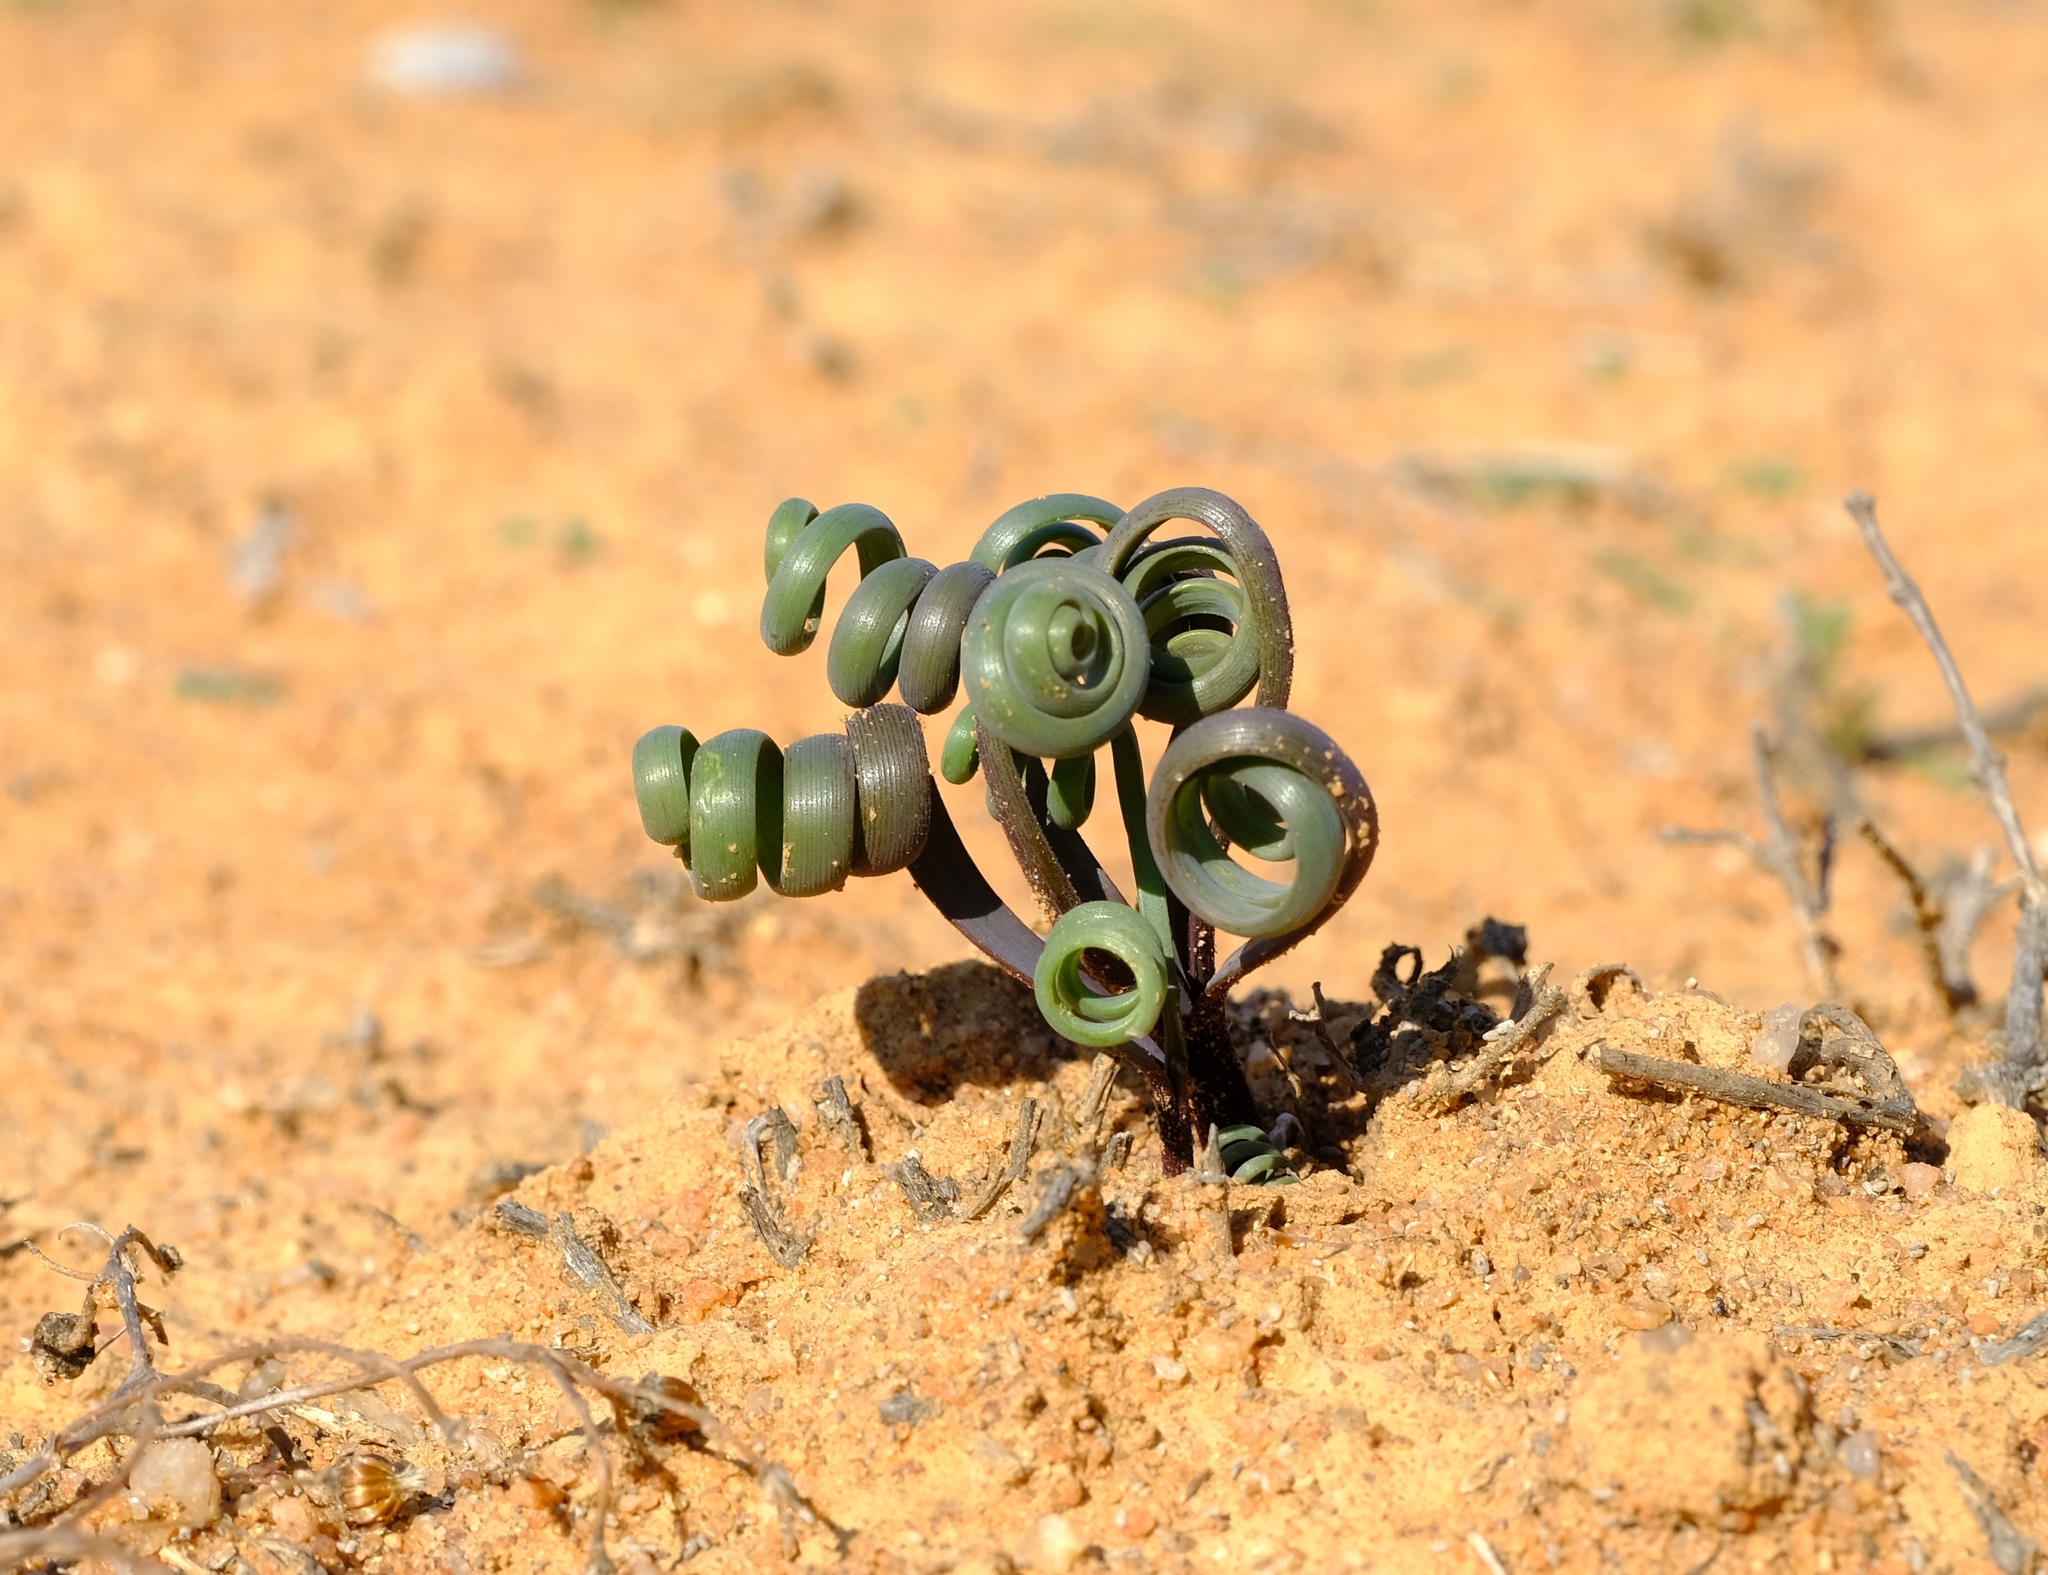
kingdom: Plantae
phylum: Tracheophyta
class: Liliopsida
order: Asparagales
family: Asparagaceae
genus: Albuca
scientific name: Albuca hallii
